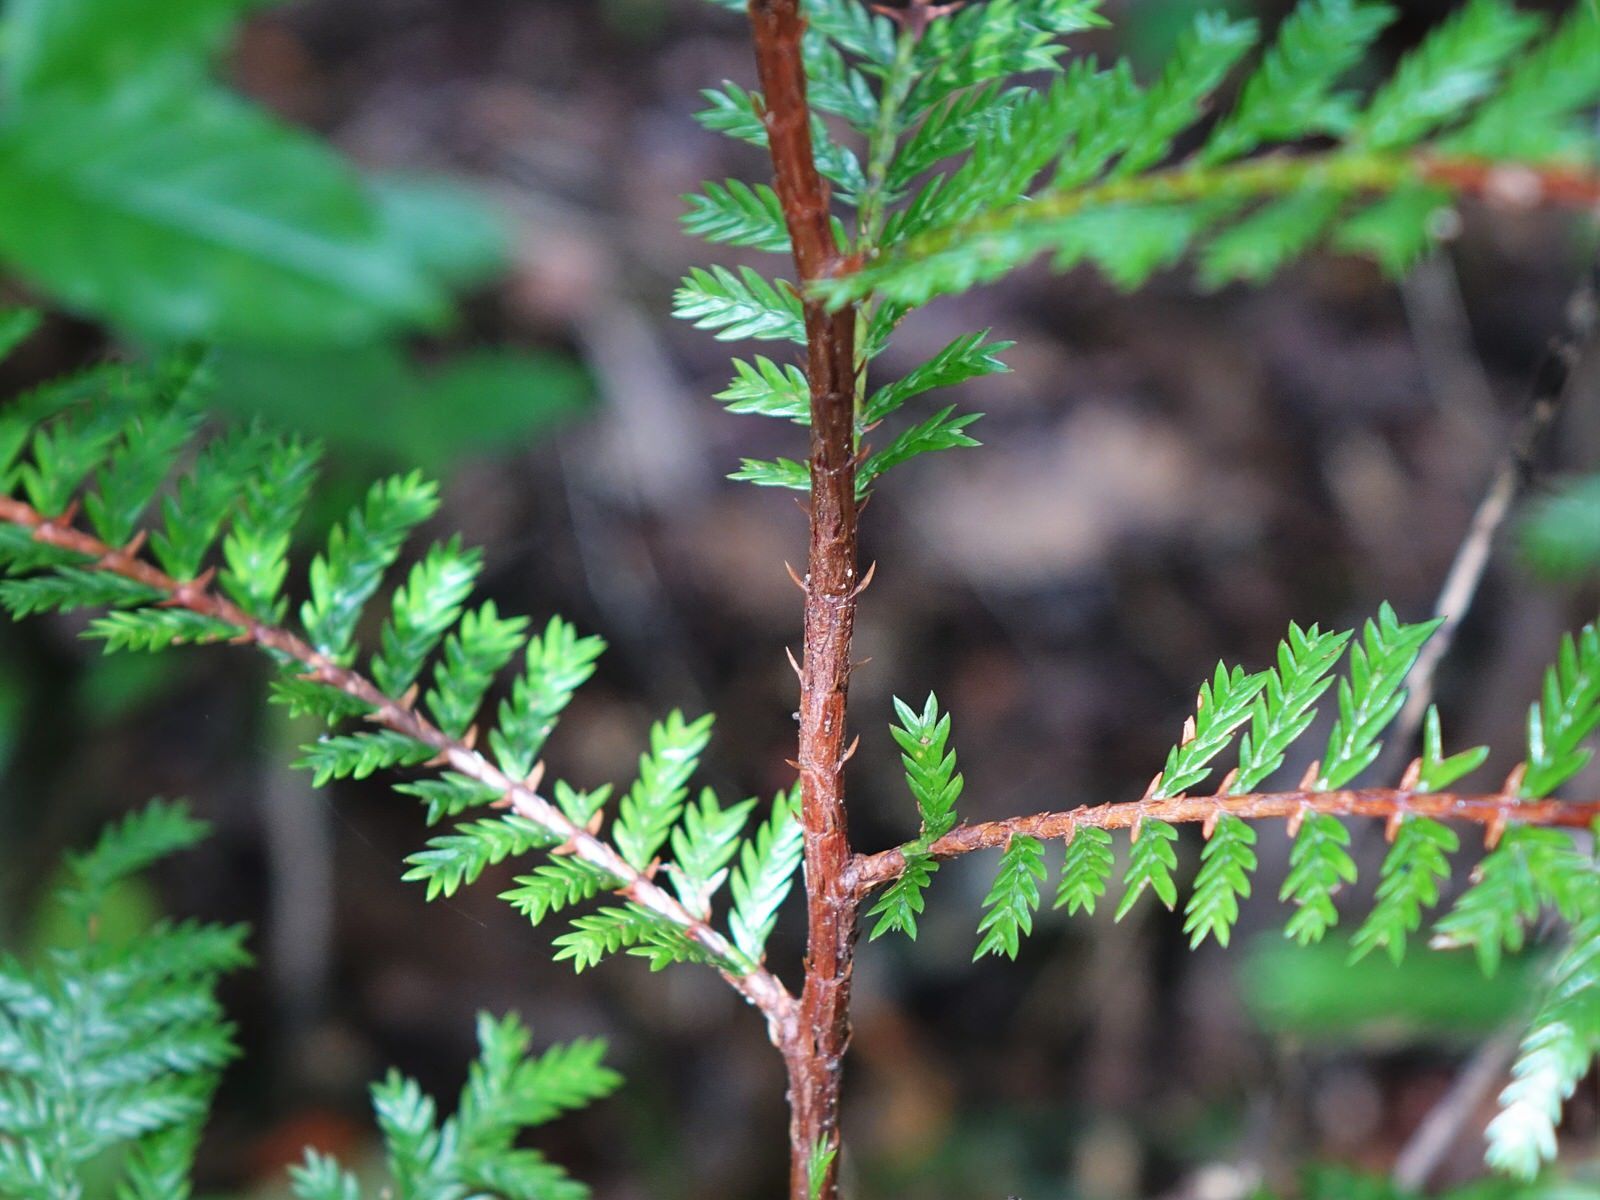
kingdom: Plantae
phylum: Tracheophyta
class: Pinopsida
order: Pinales
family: Cupressaceae
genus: Libocedrus
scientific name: Libocedrus plumosa
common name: New zealand cedar
